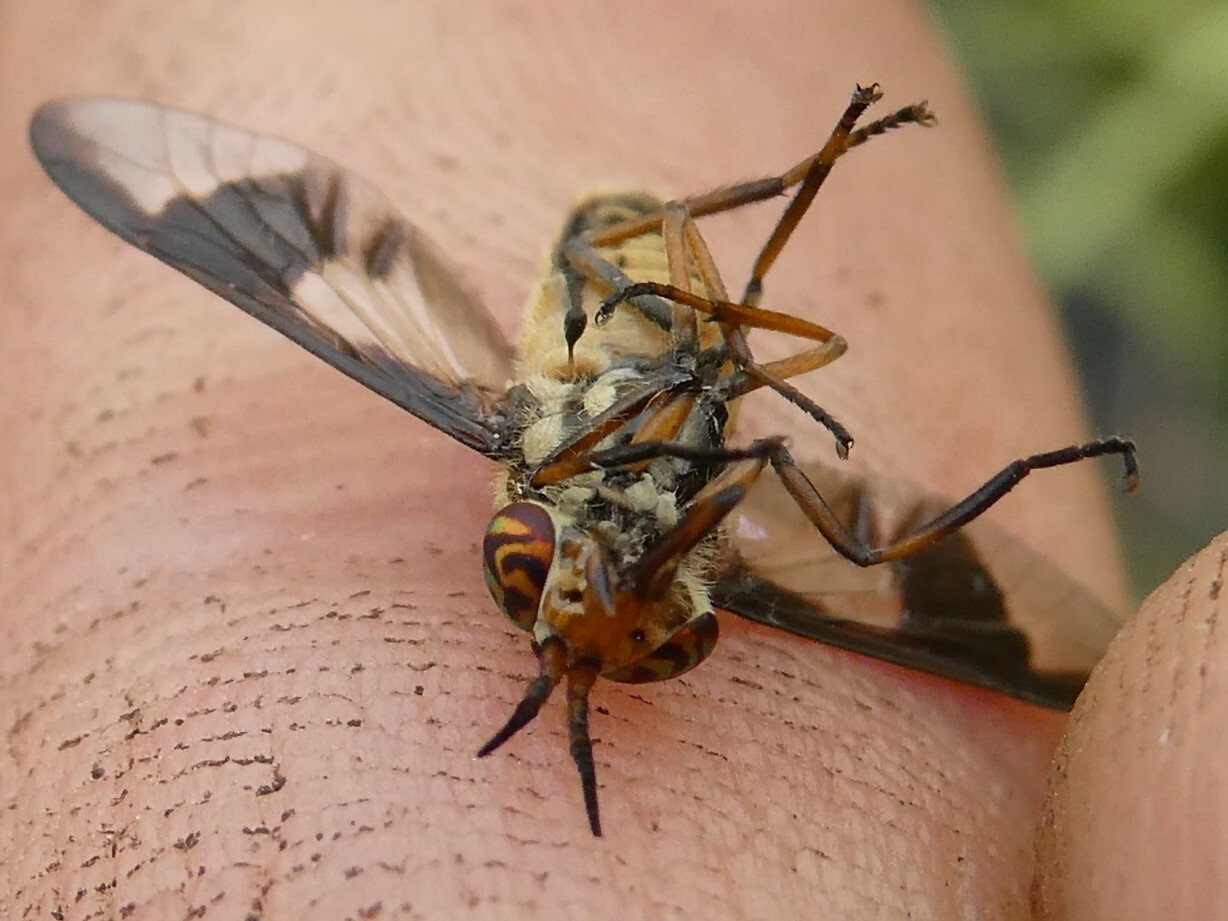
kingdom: Animalia
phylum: Arthropoda
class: Insecta
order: Diptera
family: Tabanidae
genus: Chrysops
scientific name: Chrysops sackeni
